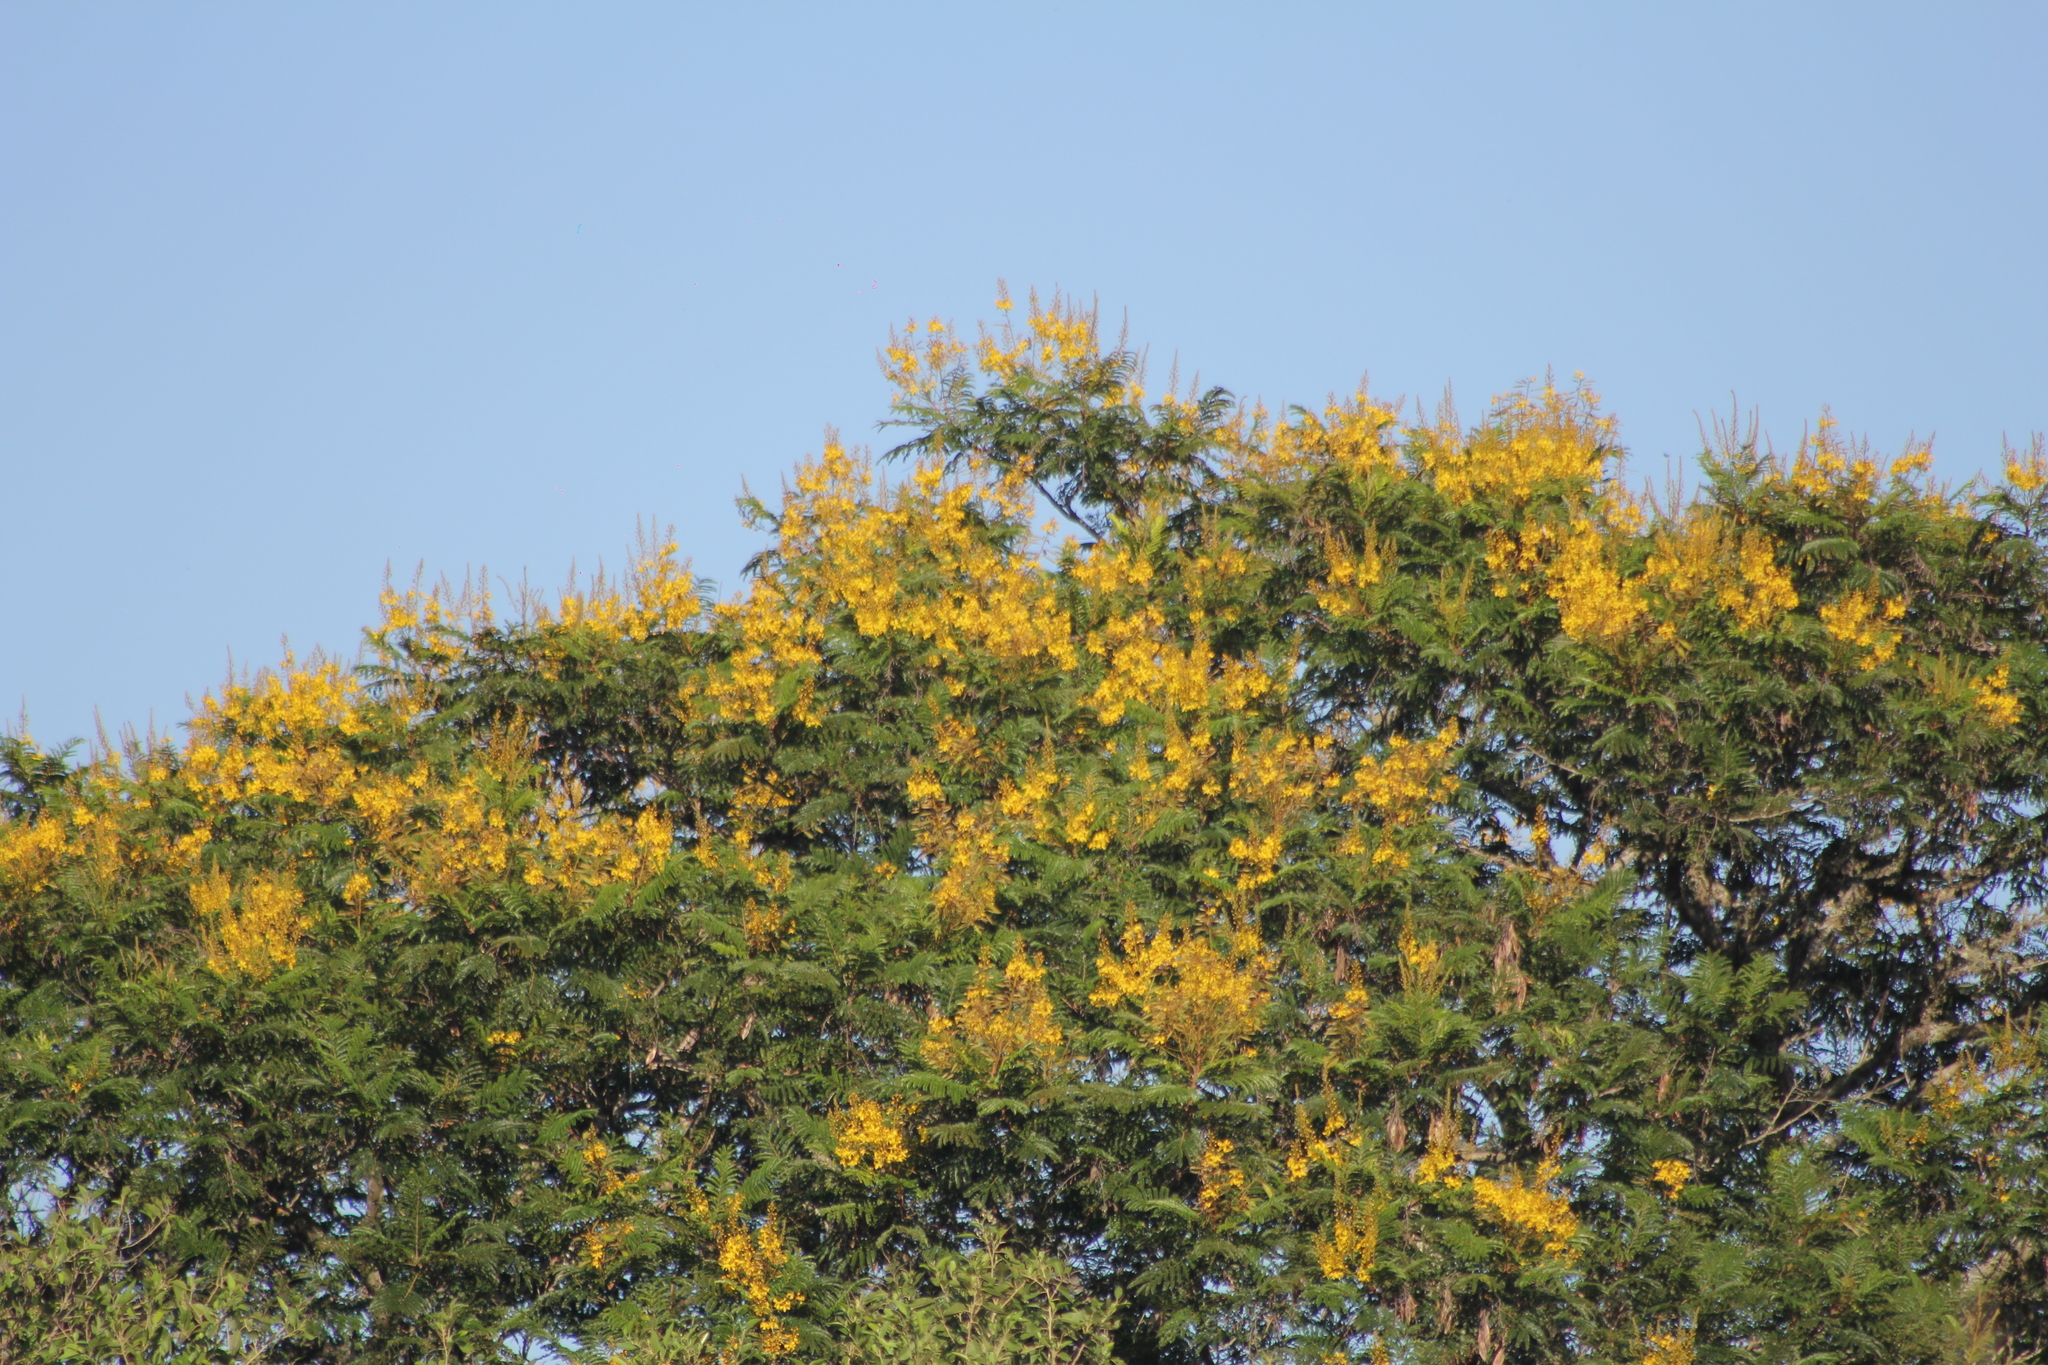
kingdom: Plantae
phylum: Tracheophyta
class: Magnoliopsida
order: Fabales
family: Fabaceae
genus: Peltophorum
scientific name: Peltophorum dubium
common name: Horsebush
